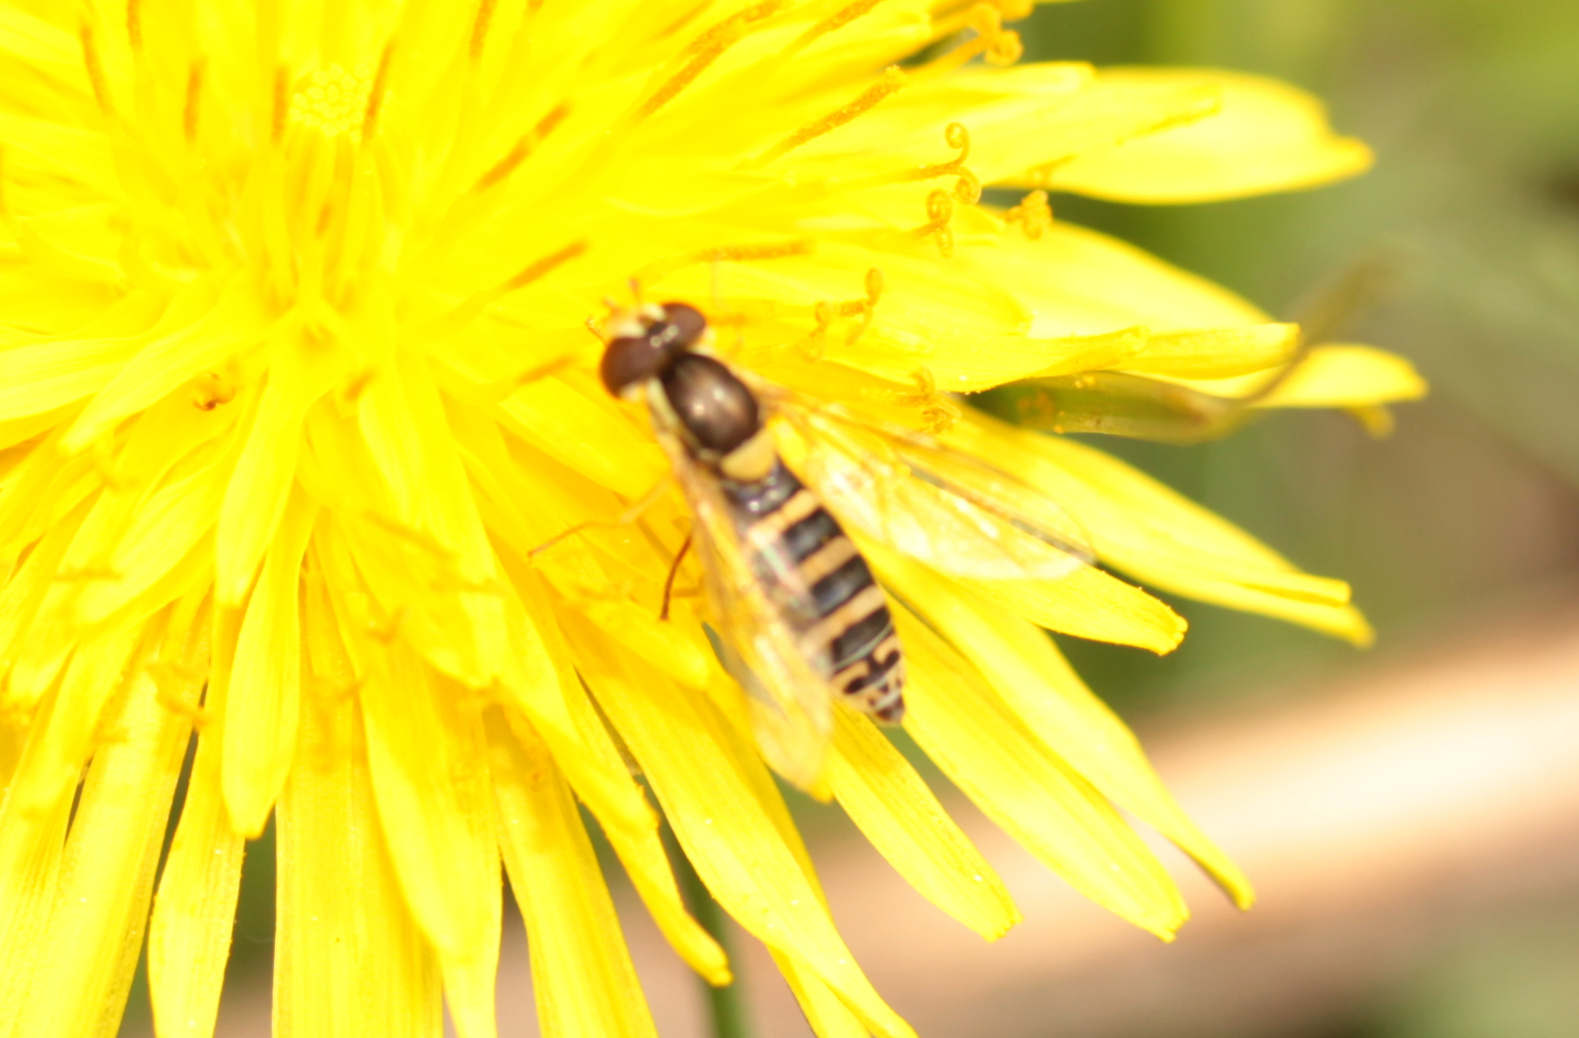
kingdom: Animalia
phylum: Arthropoda
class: Insecta
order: Diptera
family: Syrphidae
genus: Sphaerophoria
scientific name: Sphaerophoria
